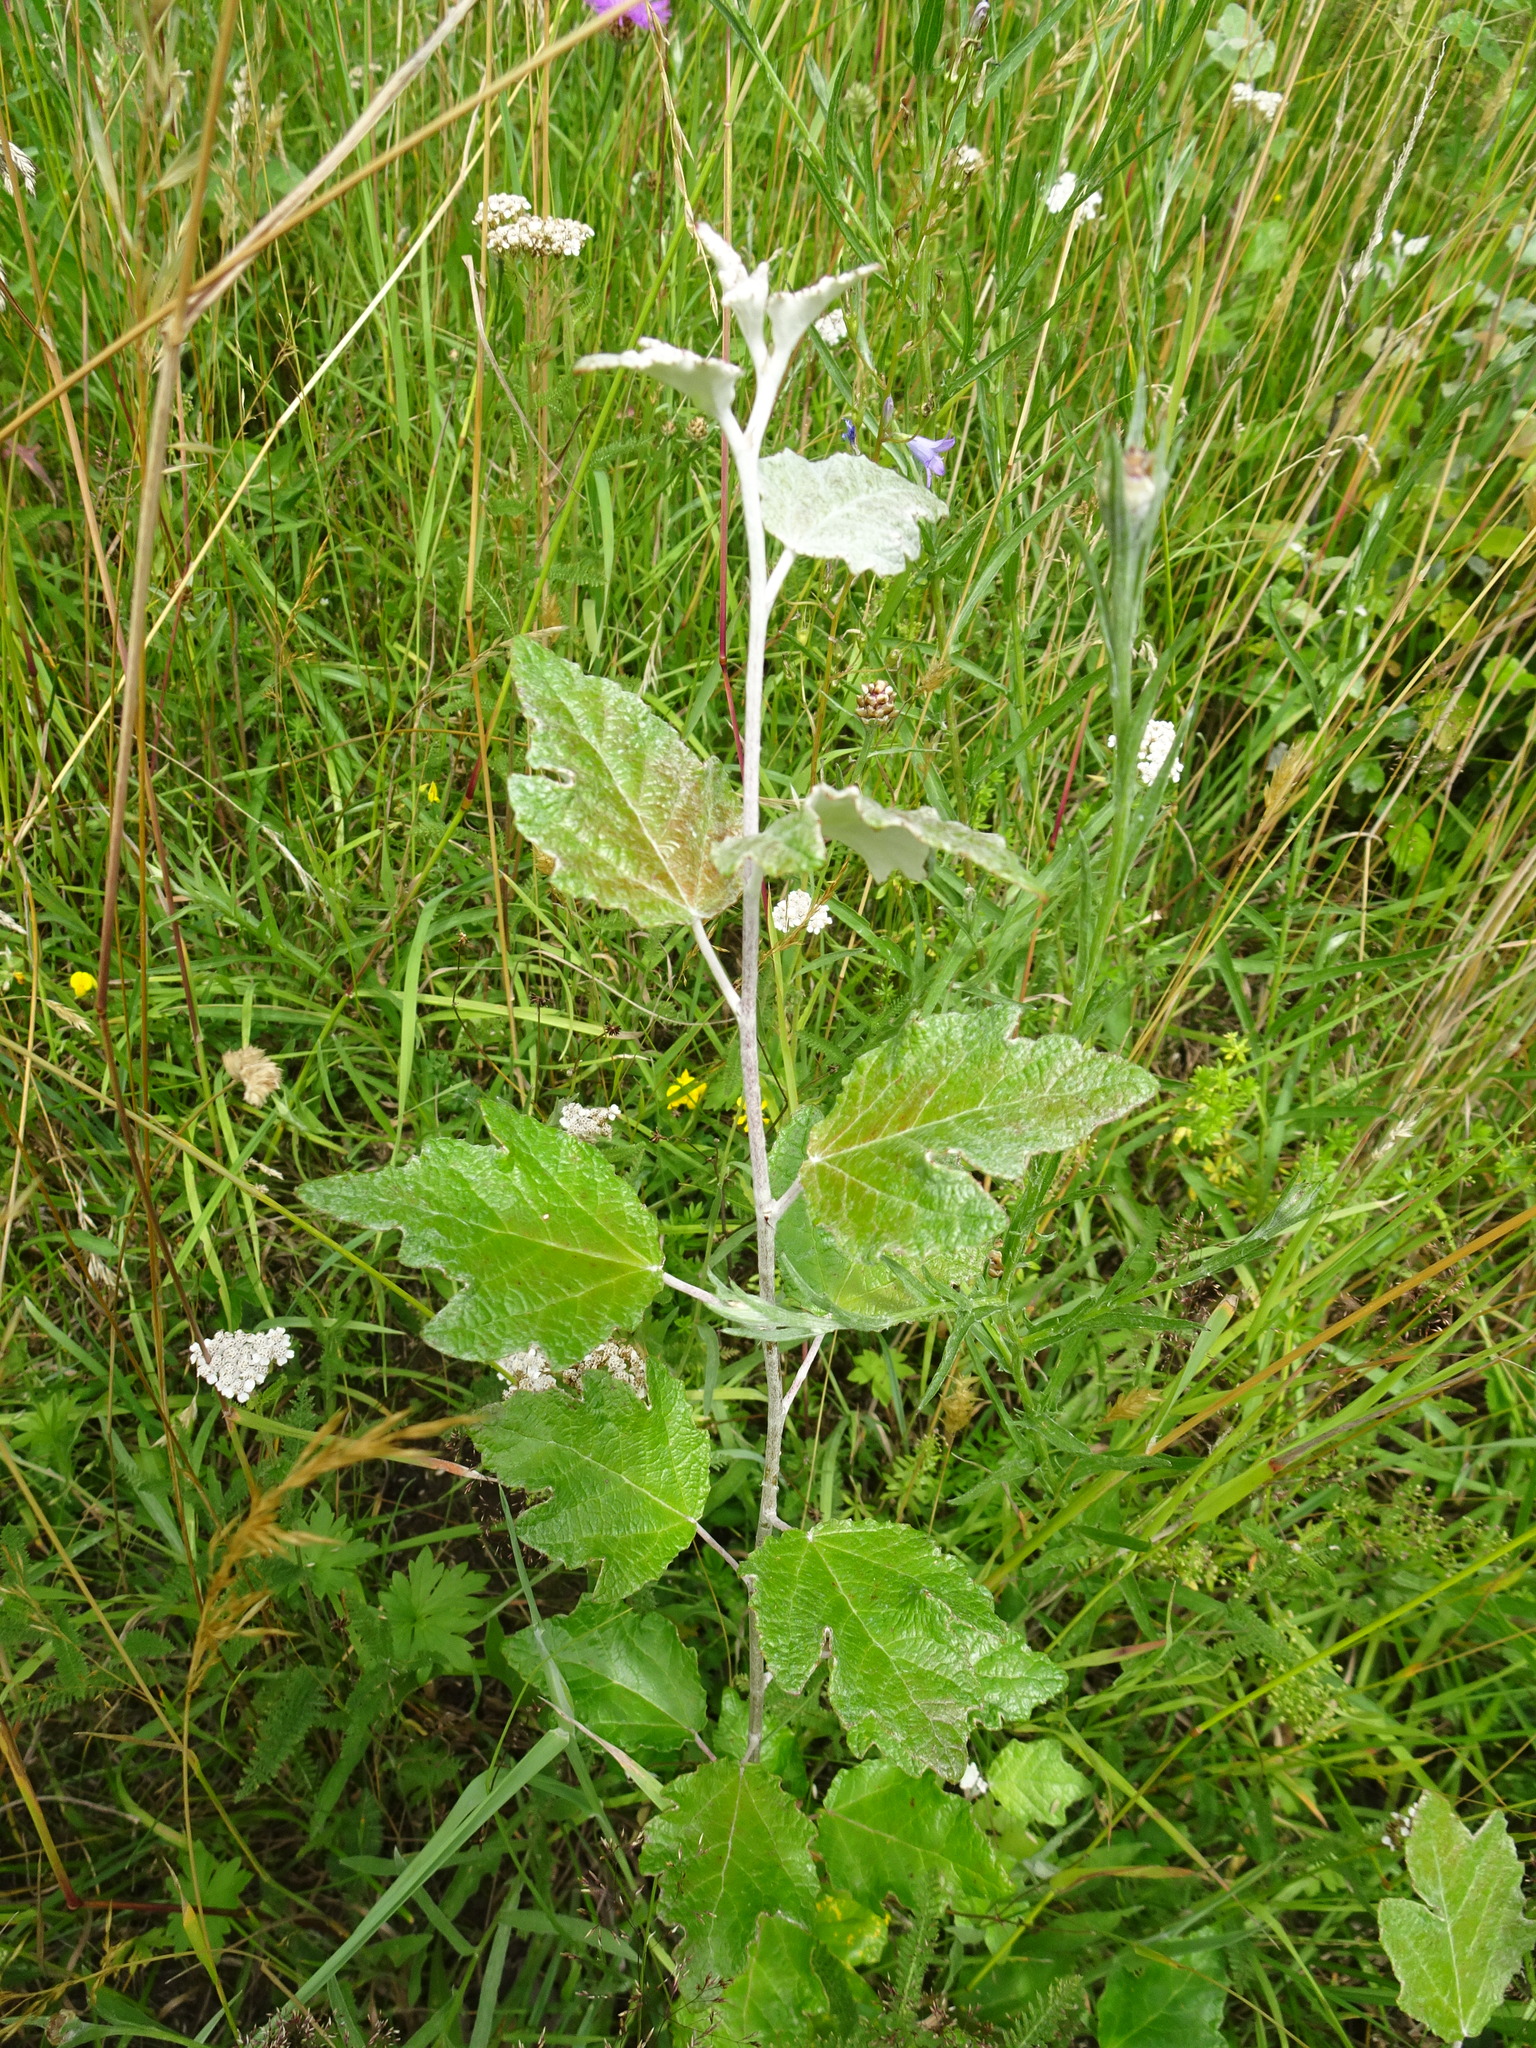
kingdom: Plantae
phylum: Tracheophyta
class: Magnoliopsida
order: Malpighiales
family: Salicaceae
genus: Populus
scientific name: Populus alba
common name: White poplar
